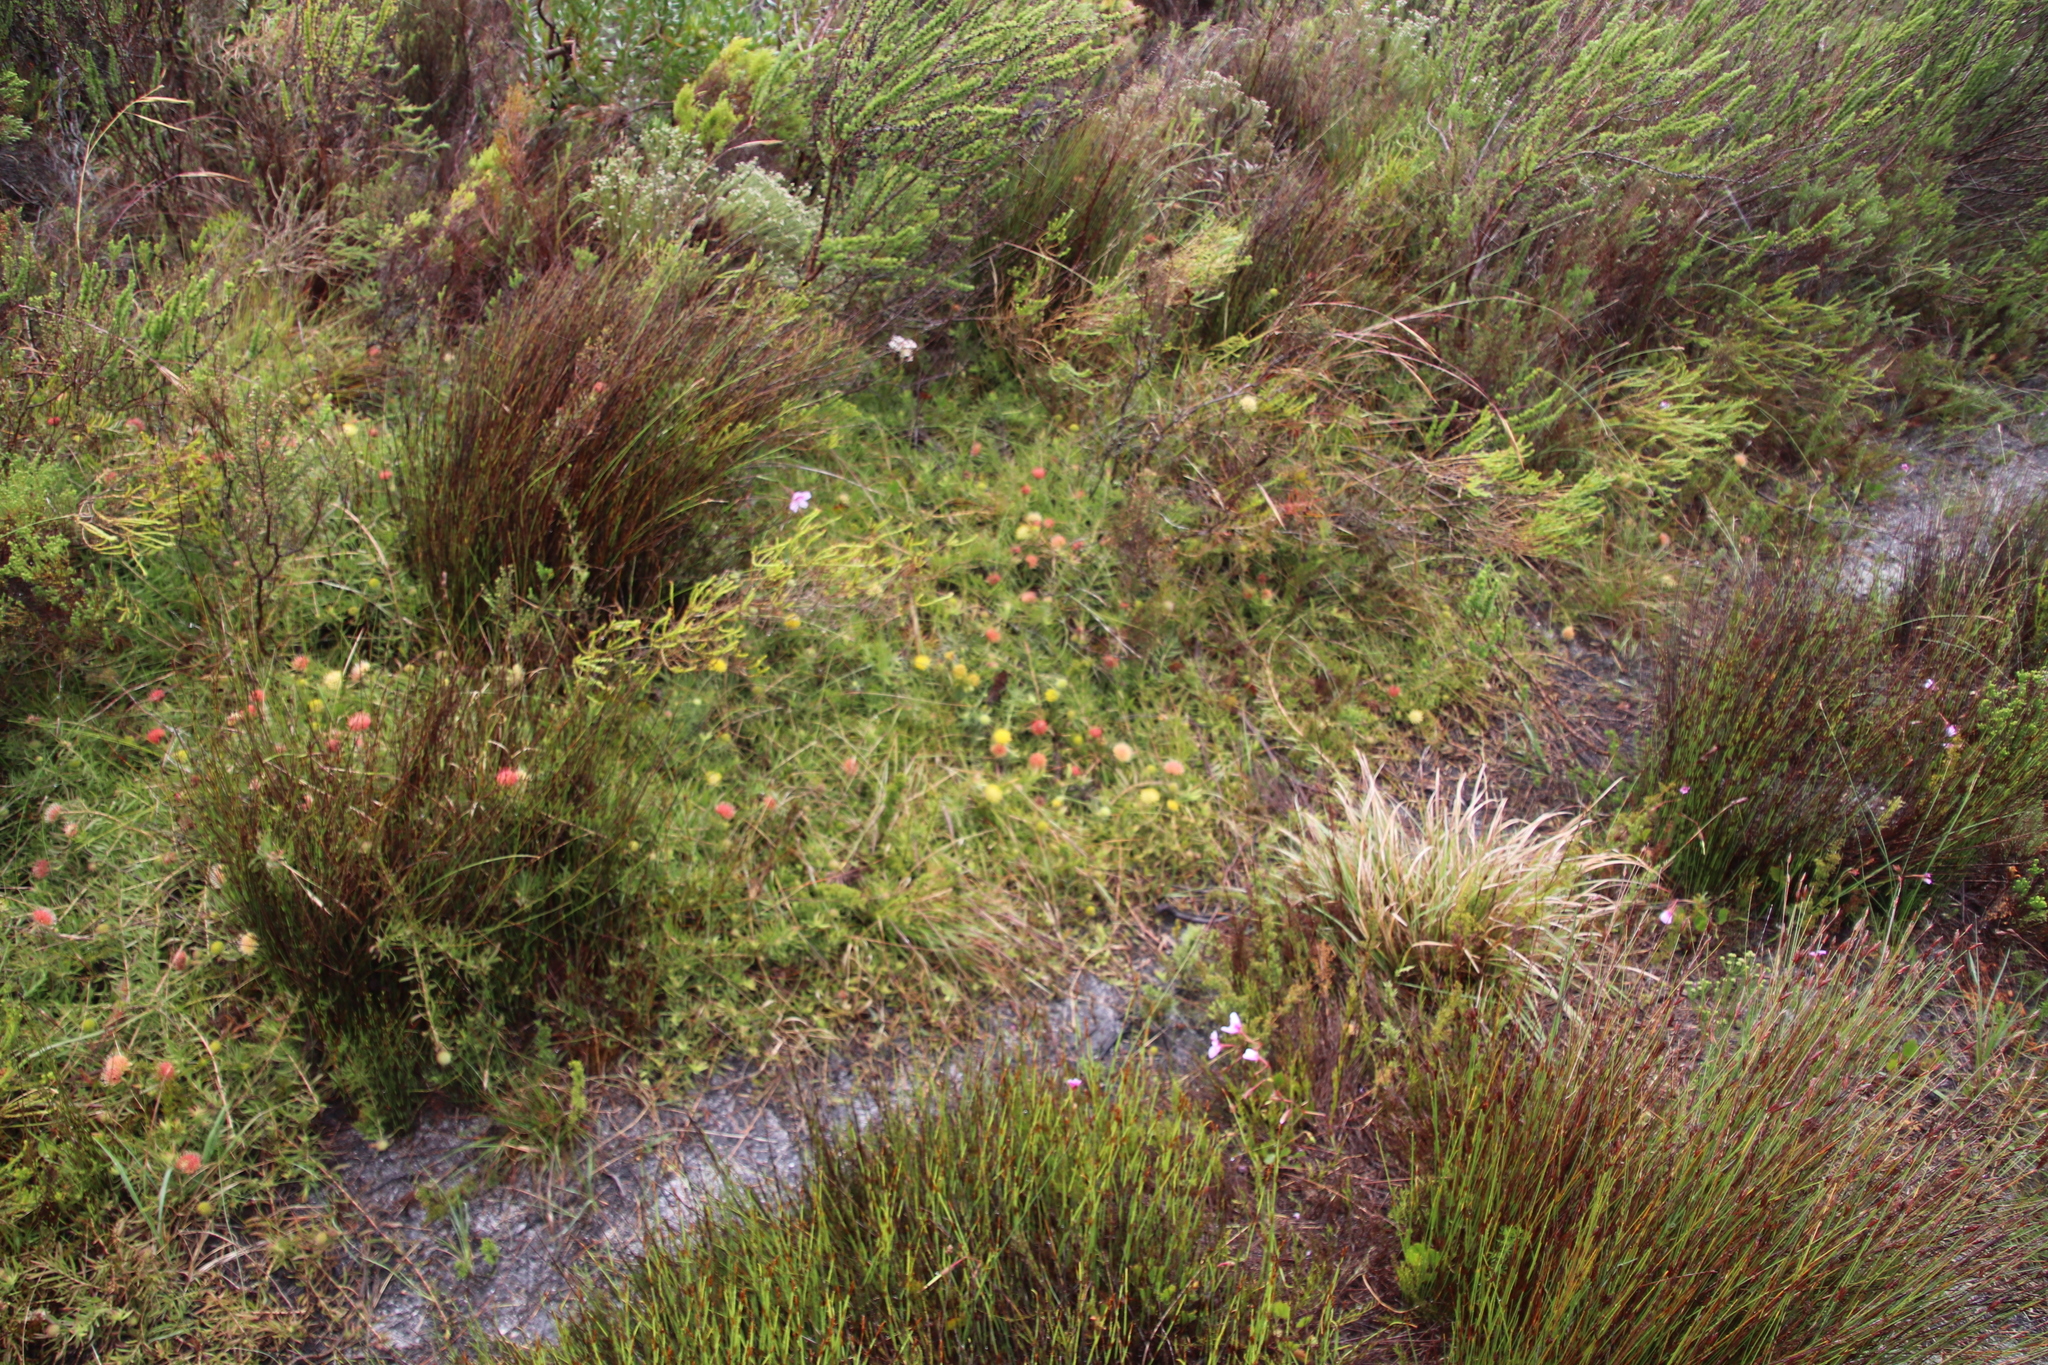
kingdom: Plantae
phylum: Tracheophyta
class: Magnoliopsida
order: Proteales
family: Proteaceae
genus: Leucospermum
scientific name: Leucospermum pedunculatum
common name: White-trailing pincushion
